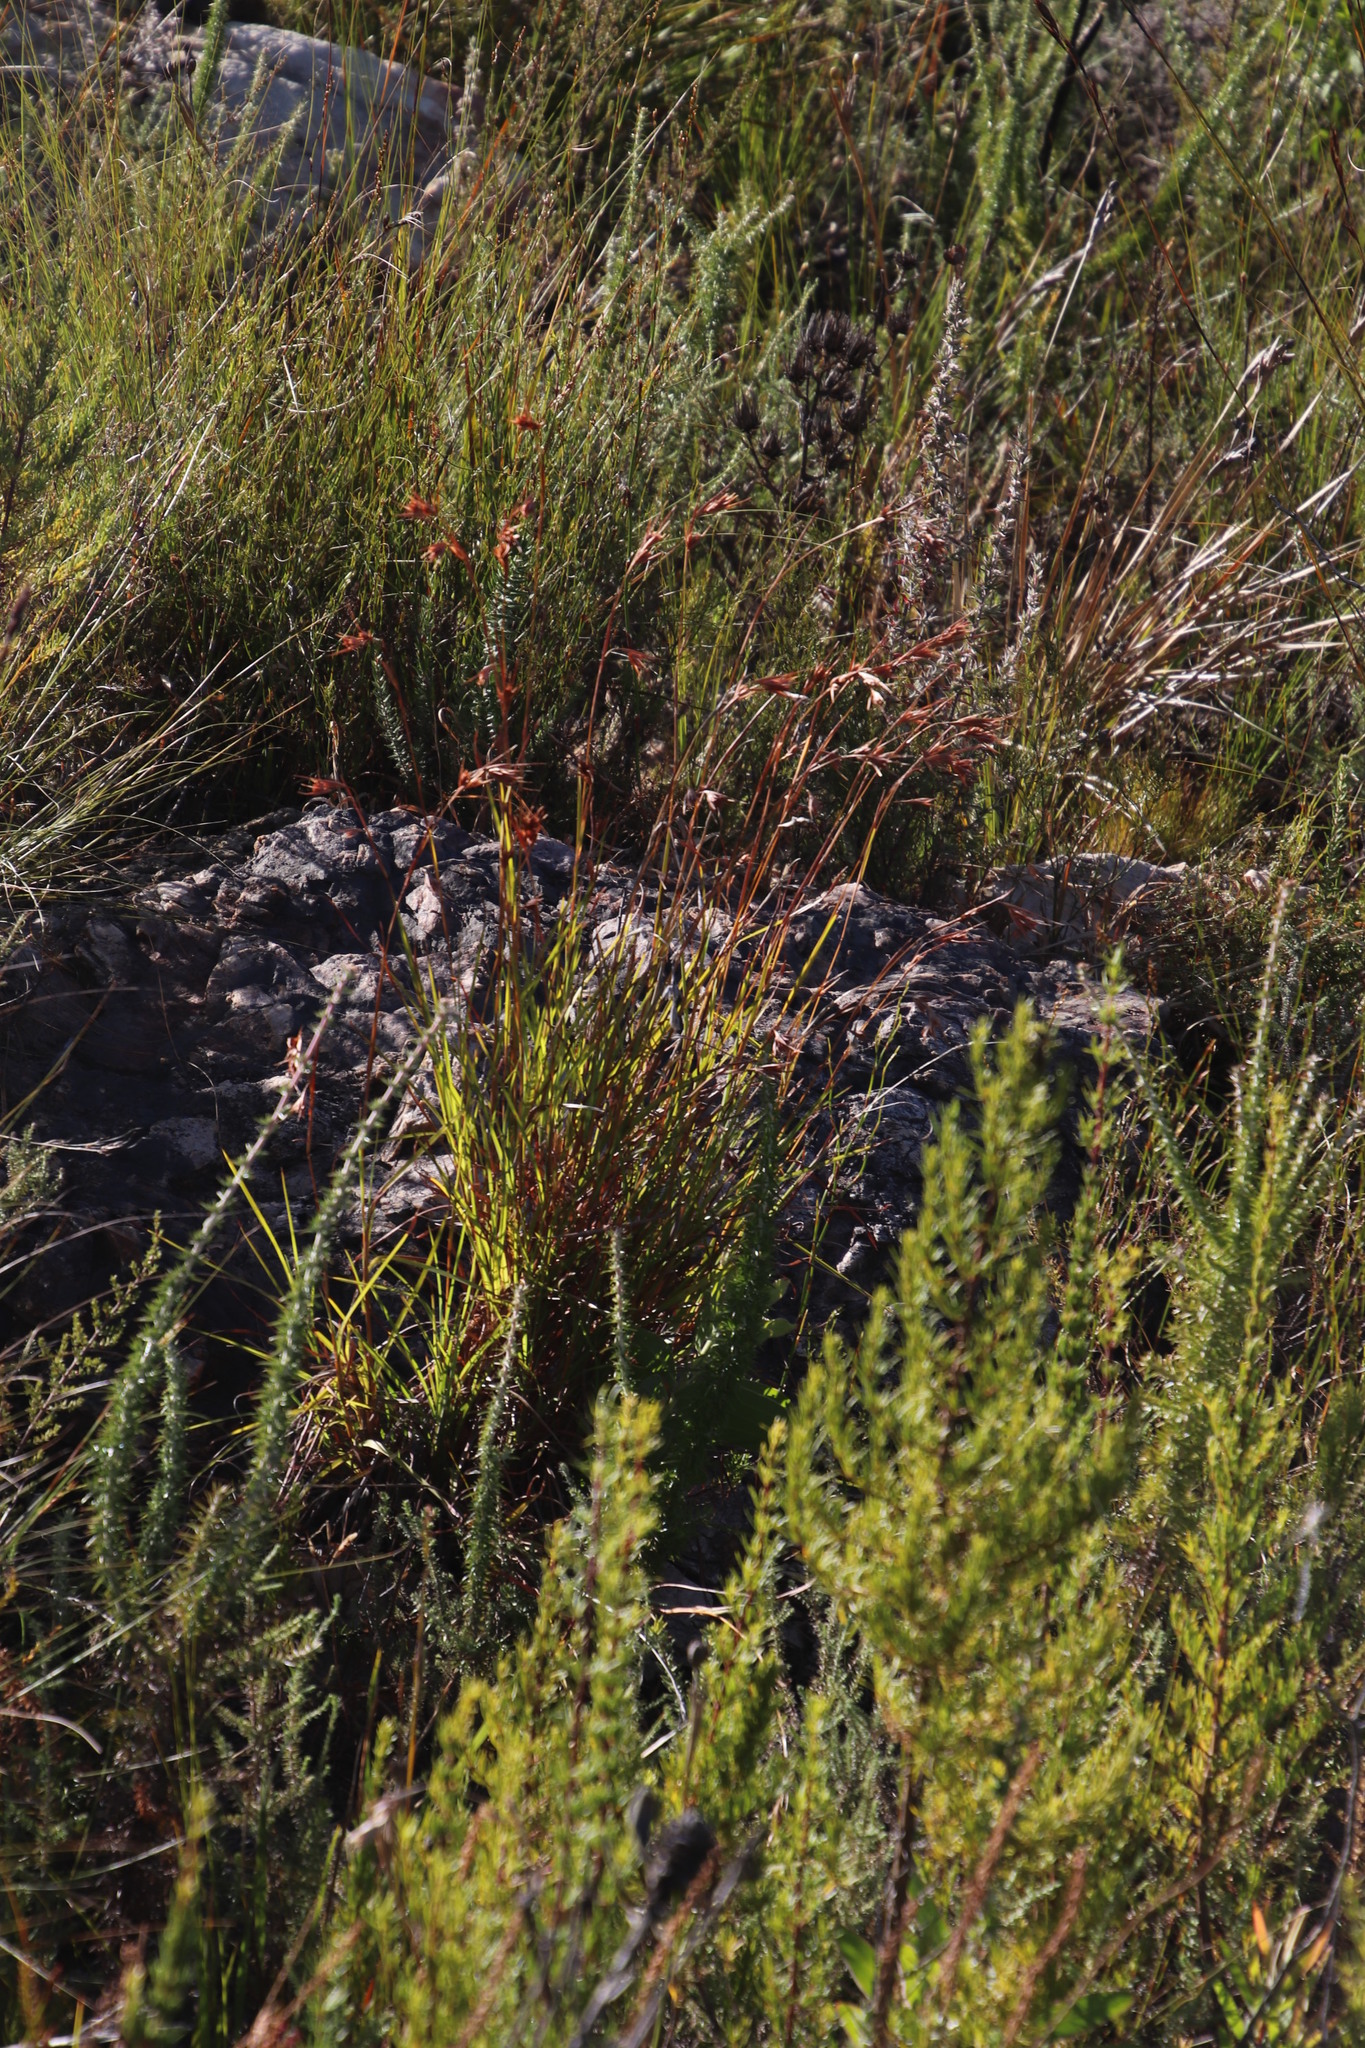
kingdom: Plantae
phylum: Tracheophyta
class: Liliopsida
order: Poales
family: Poaceae
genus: Themeda
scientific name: Themeda triandra
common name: Kangaroo grass
